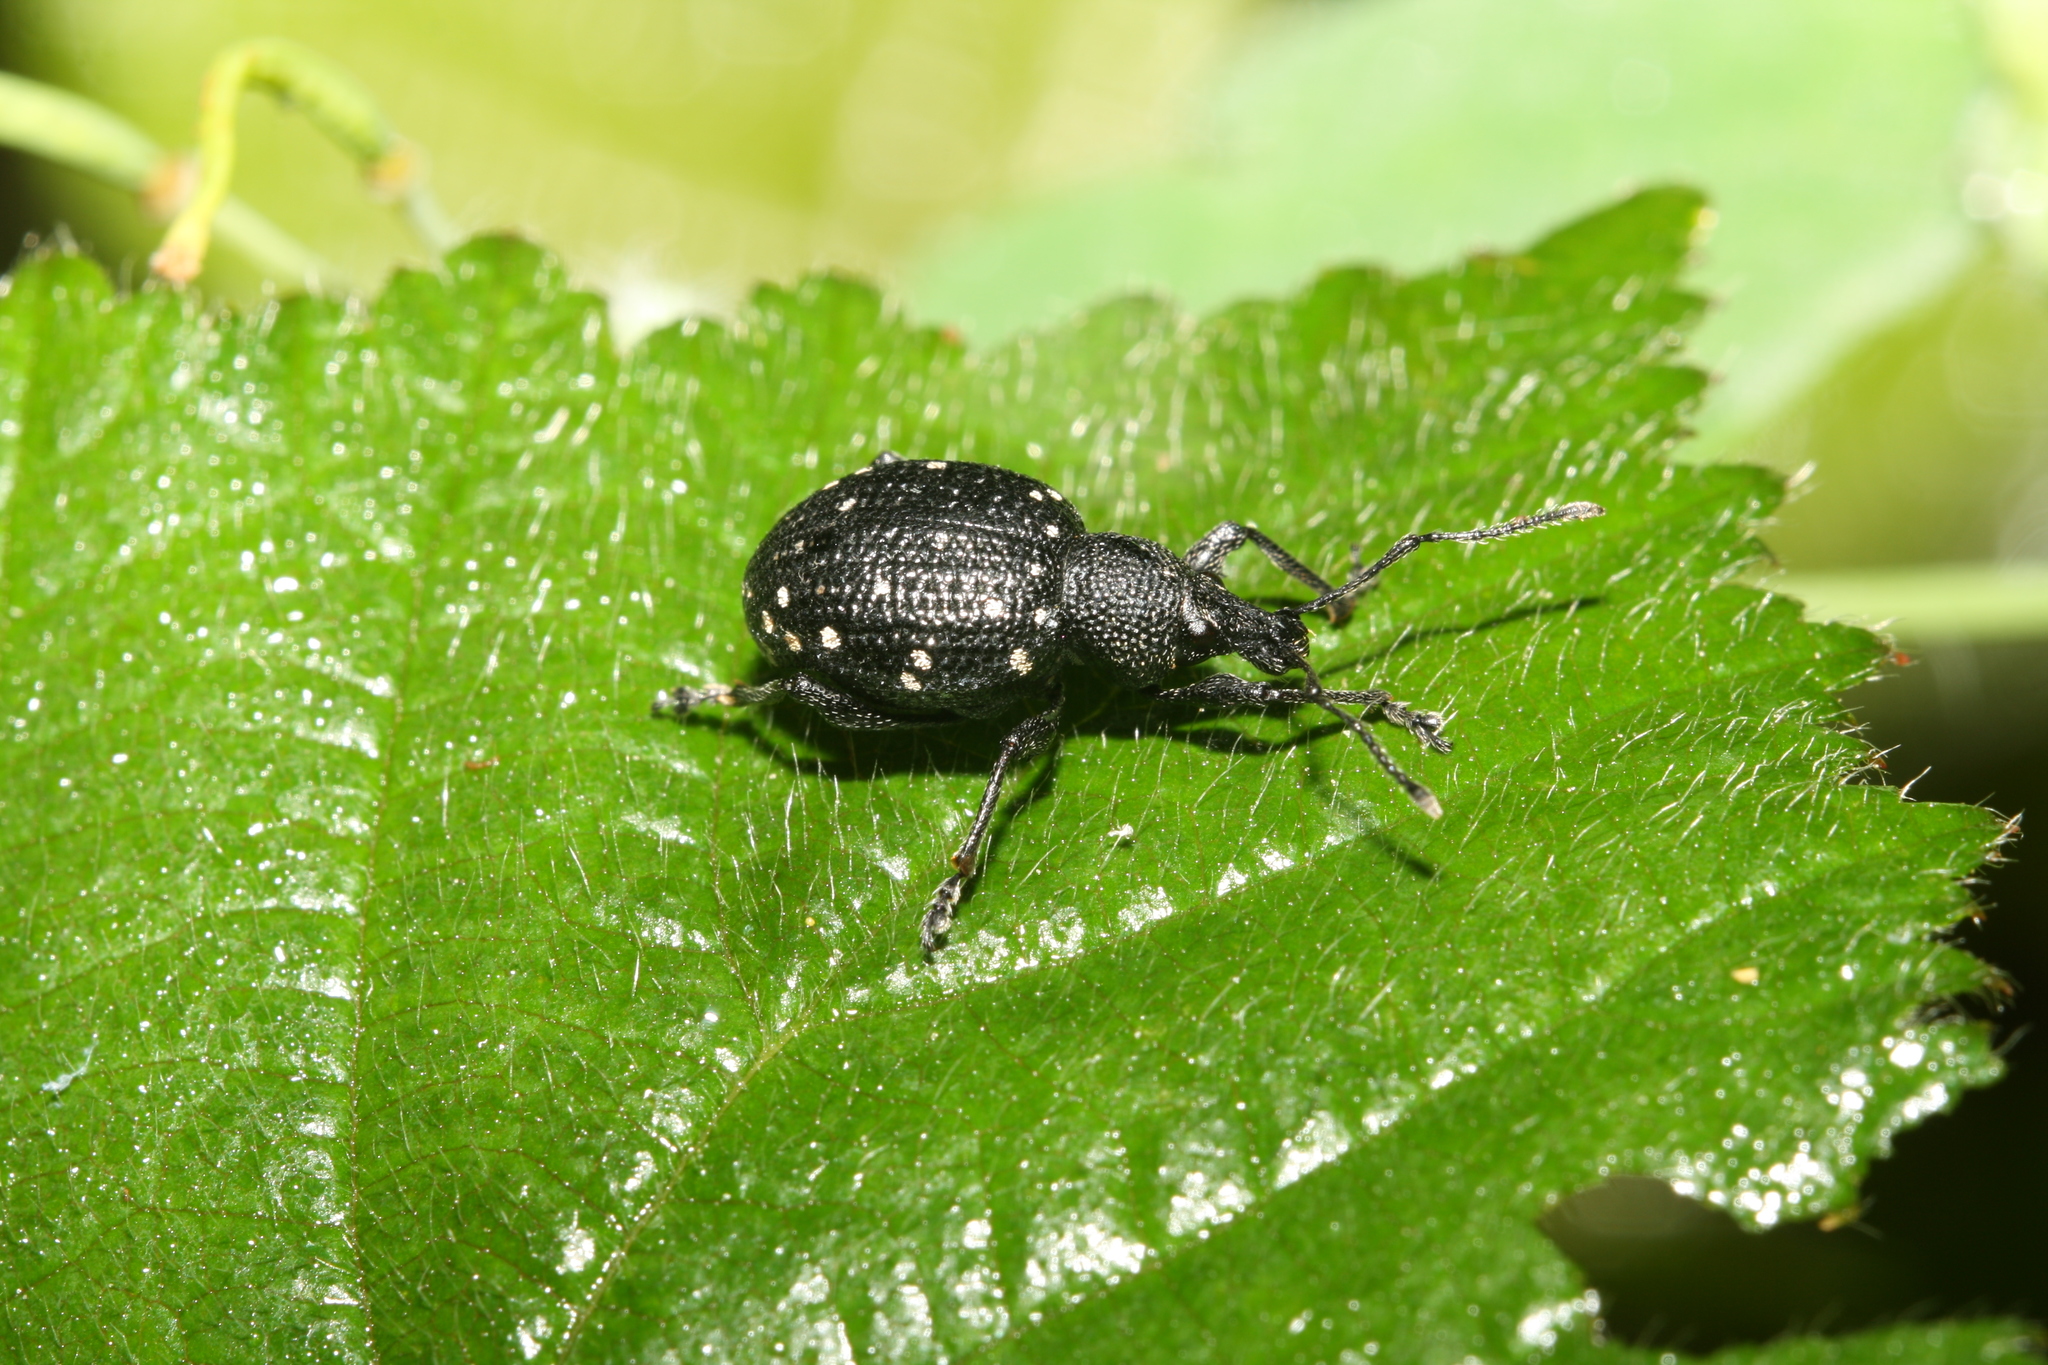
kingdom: Animalia
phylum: Arthropoda
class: Insecta
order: Coleoptera
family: Curculionidae
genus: Otiorhynchus
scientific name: Otiorhynchus gemmatus
